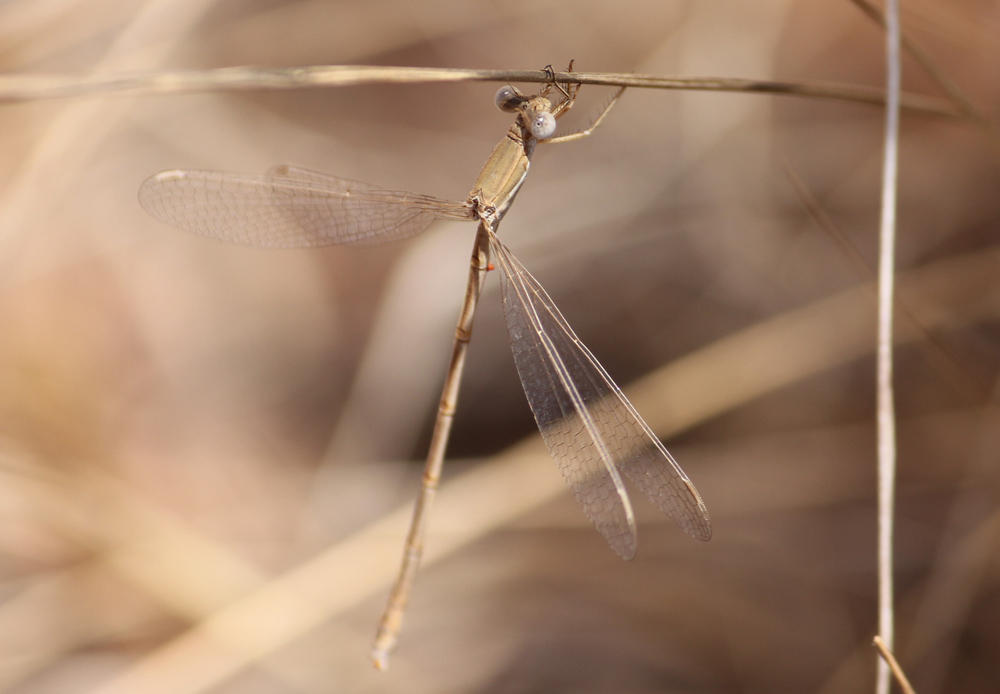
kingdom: Animalia
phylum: Arthropoda
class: Insecta
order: Odonata
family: Lestidae
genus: Lestes
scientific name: Lestes pallidus
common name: Pallid spreadwing
